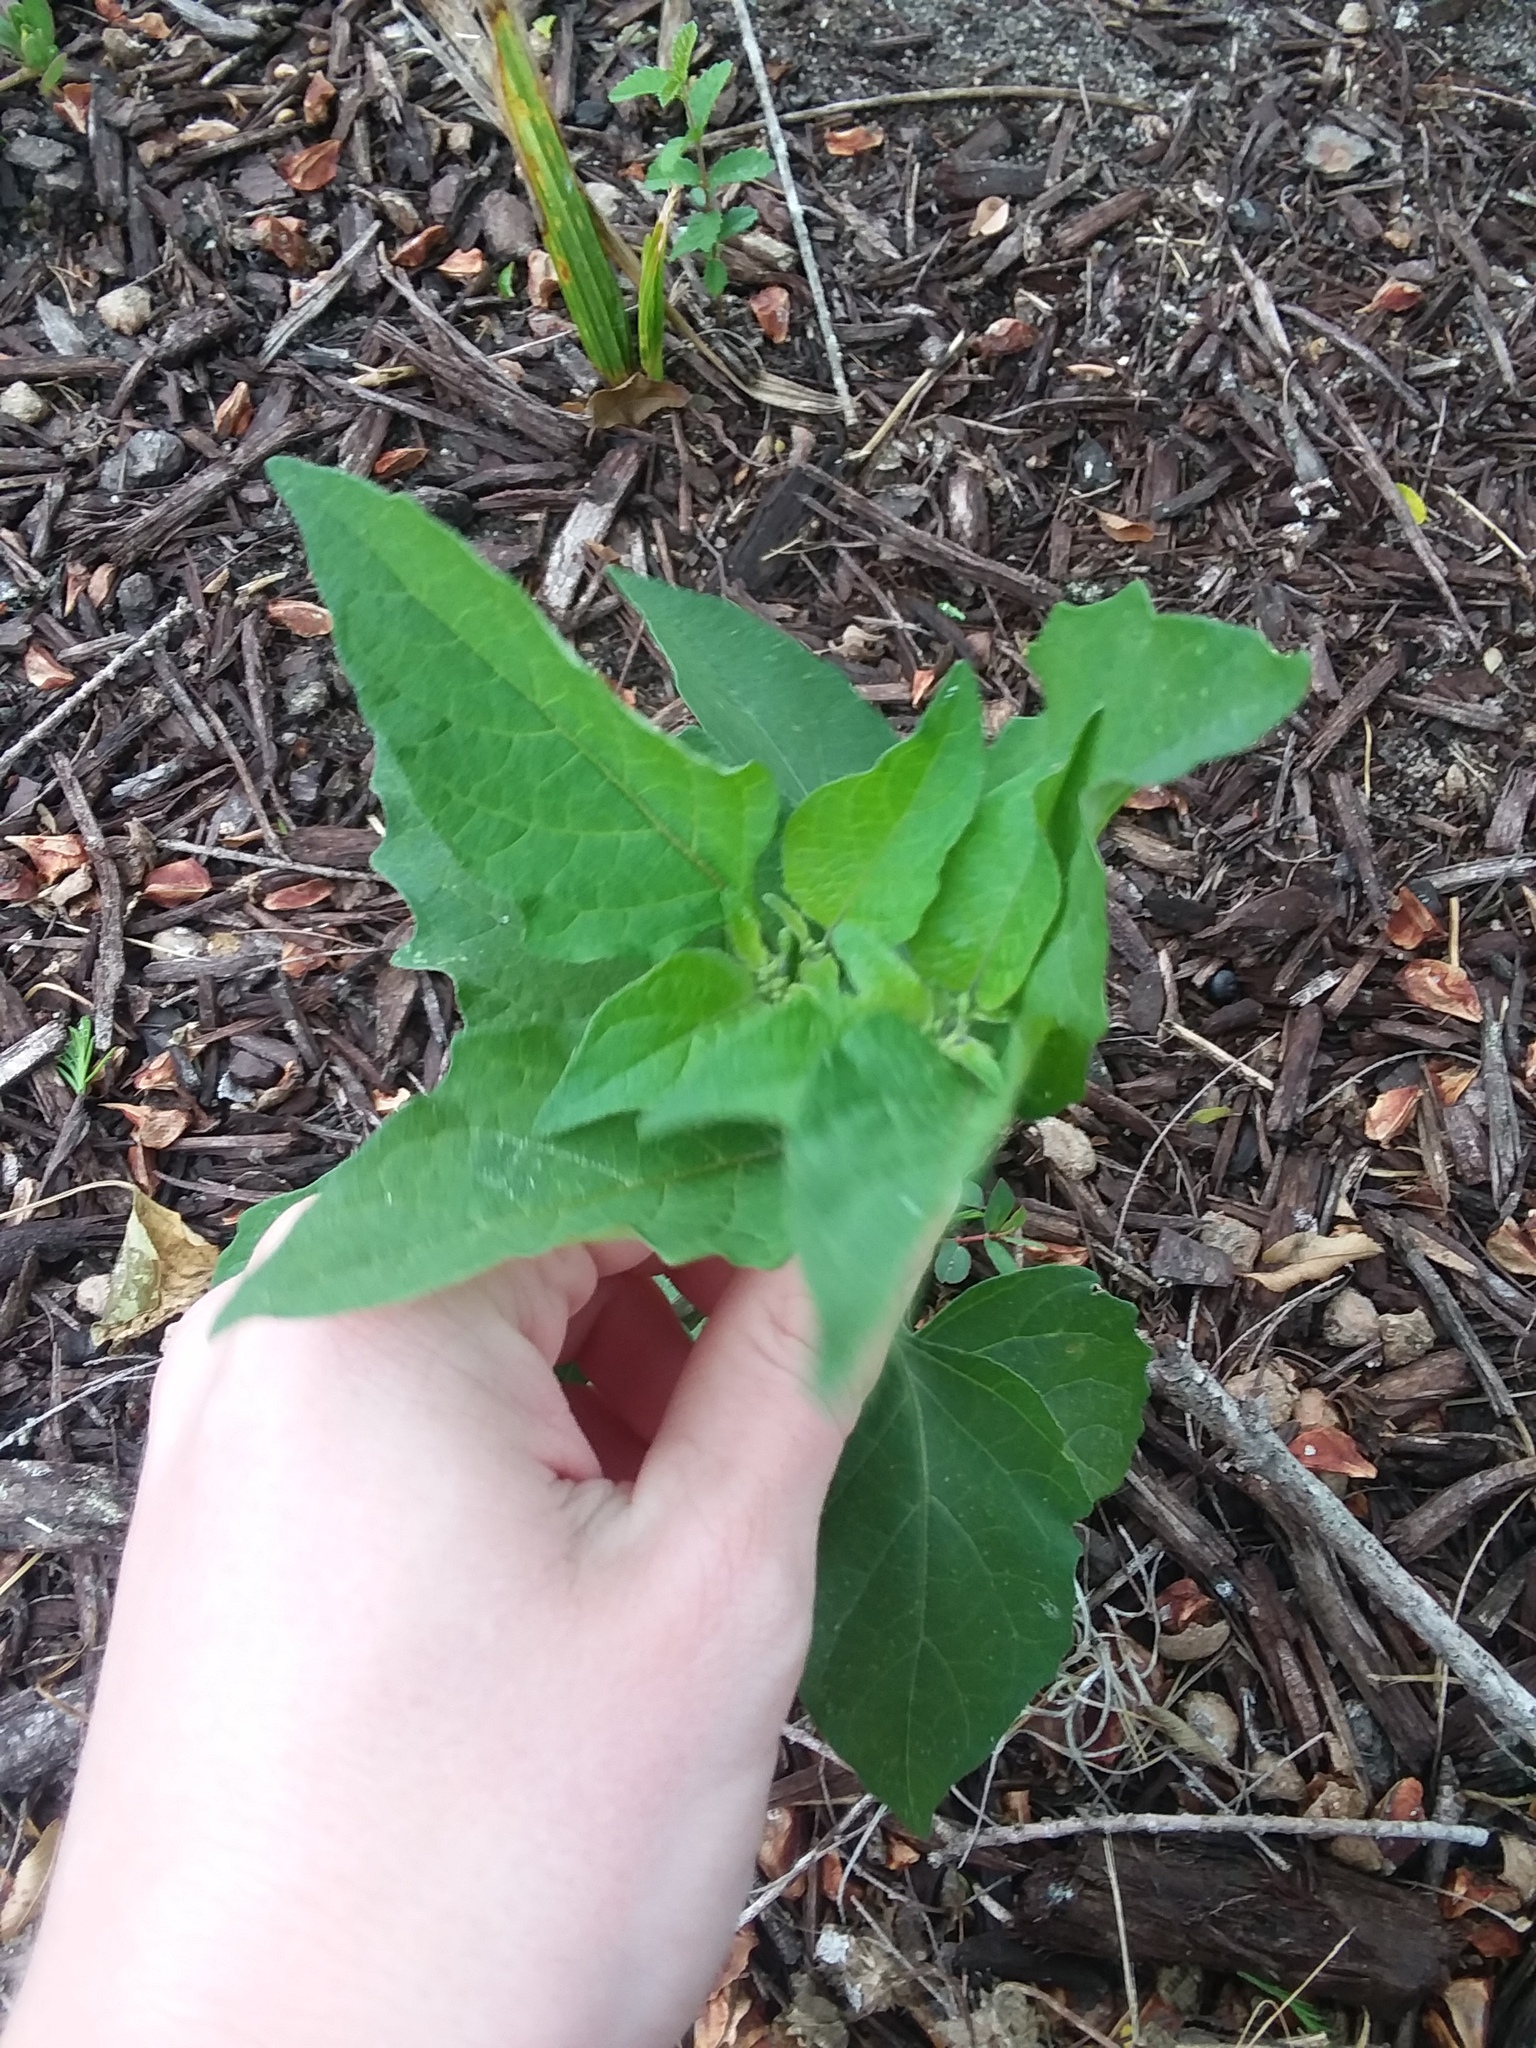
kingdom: Plantae
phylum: Tracheophyta
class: Magnoliopsida
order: Solanales
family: Solanaceae
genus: Solanum
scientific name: Solanum
